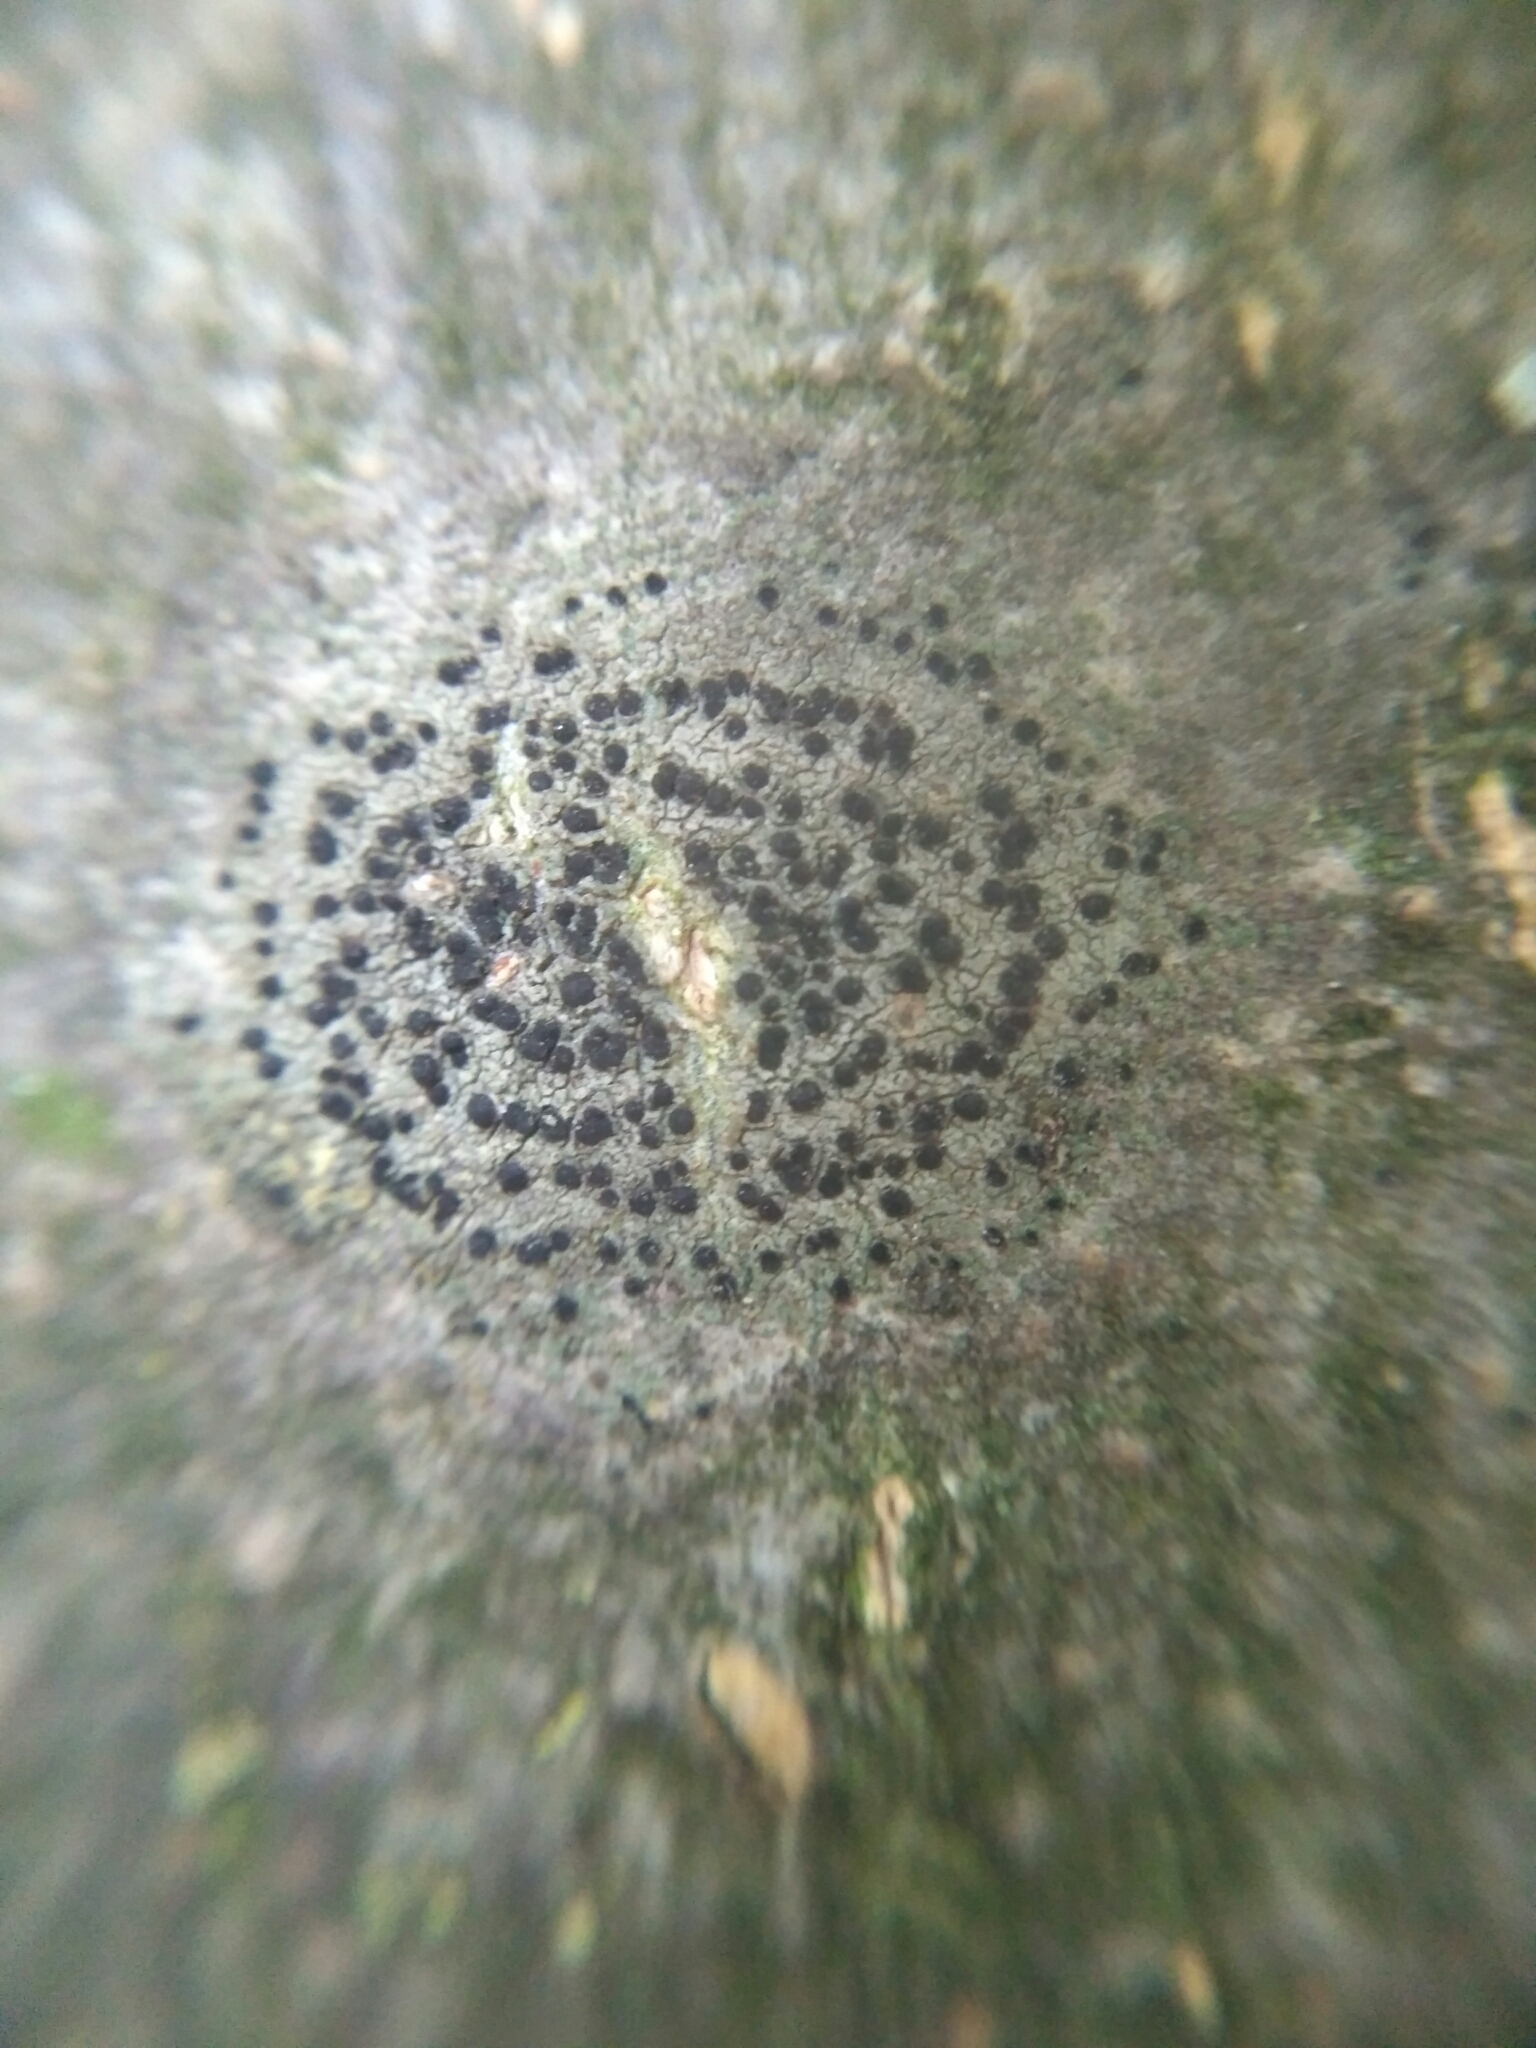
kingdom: Fungi
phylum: Ascomycota
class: Lecanoromycetes
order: Lecanorales
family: Lecanoraceae
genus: Lecidella
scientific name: Lecidella elaeochroma
